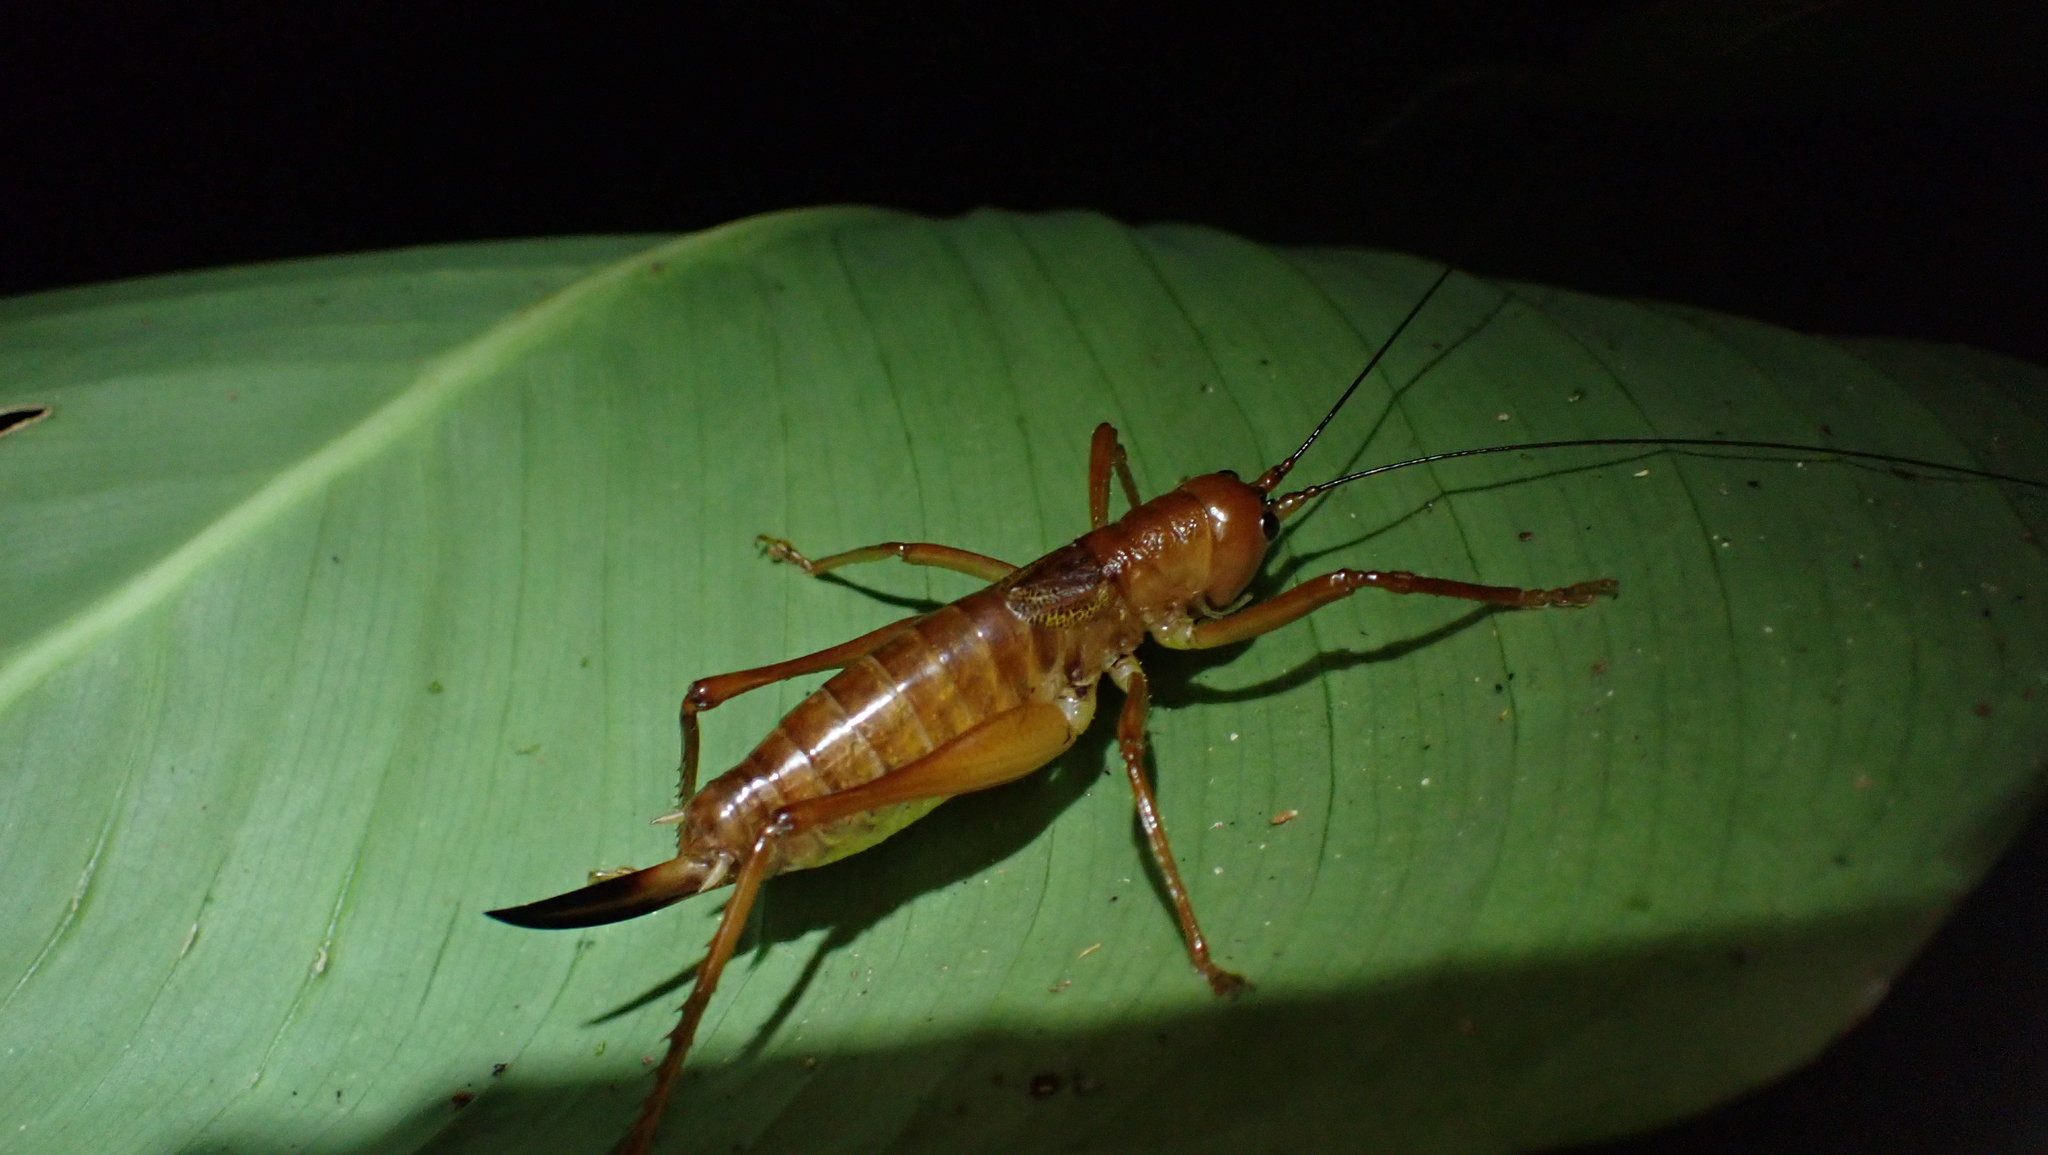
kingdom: Animalia
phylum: Arthropoda
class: Insecta
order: Orthoptera
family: Tettigoniidae
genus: Melanonotus
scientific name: Melanonotus powellorum
